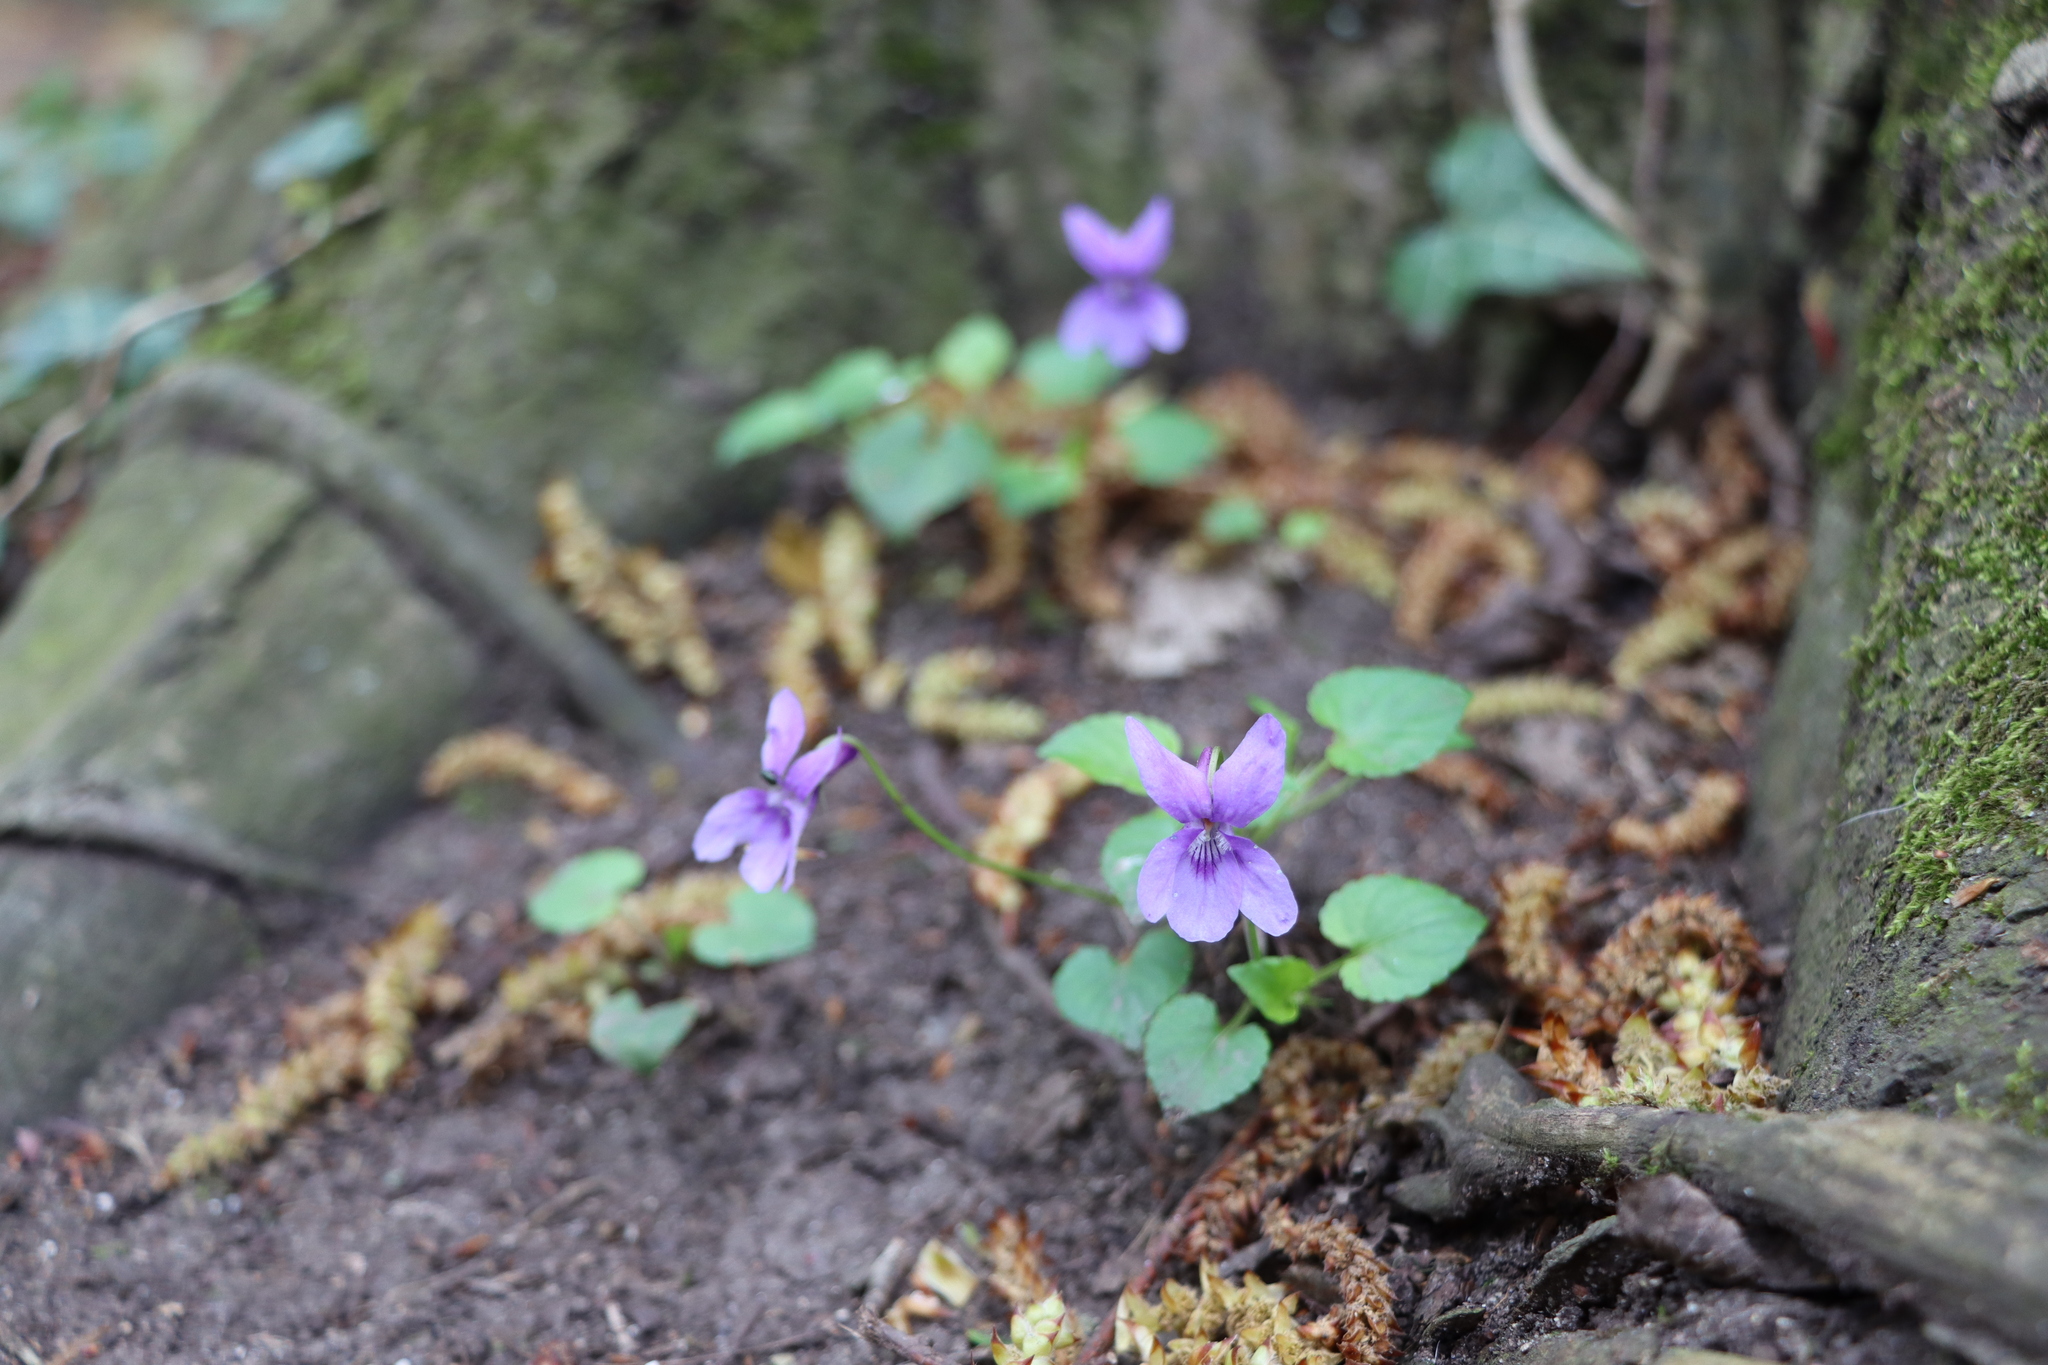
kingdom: Plantae
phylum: Tracheophyta
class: Magnoliopsida
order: Malpighiales
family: Violaceae
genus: Viola
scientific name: Viola reichenbachiana
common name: Early dog-violet
